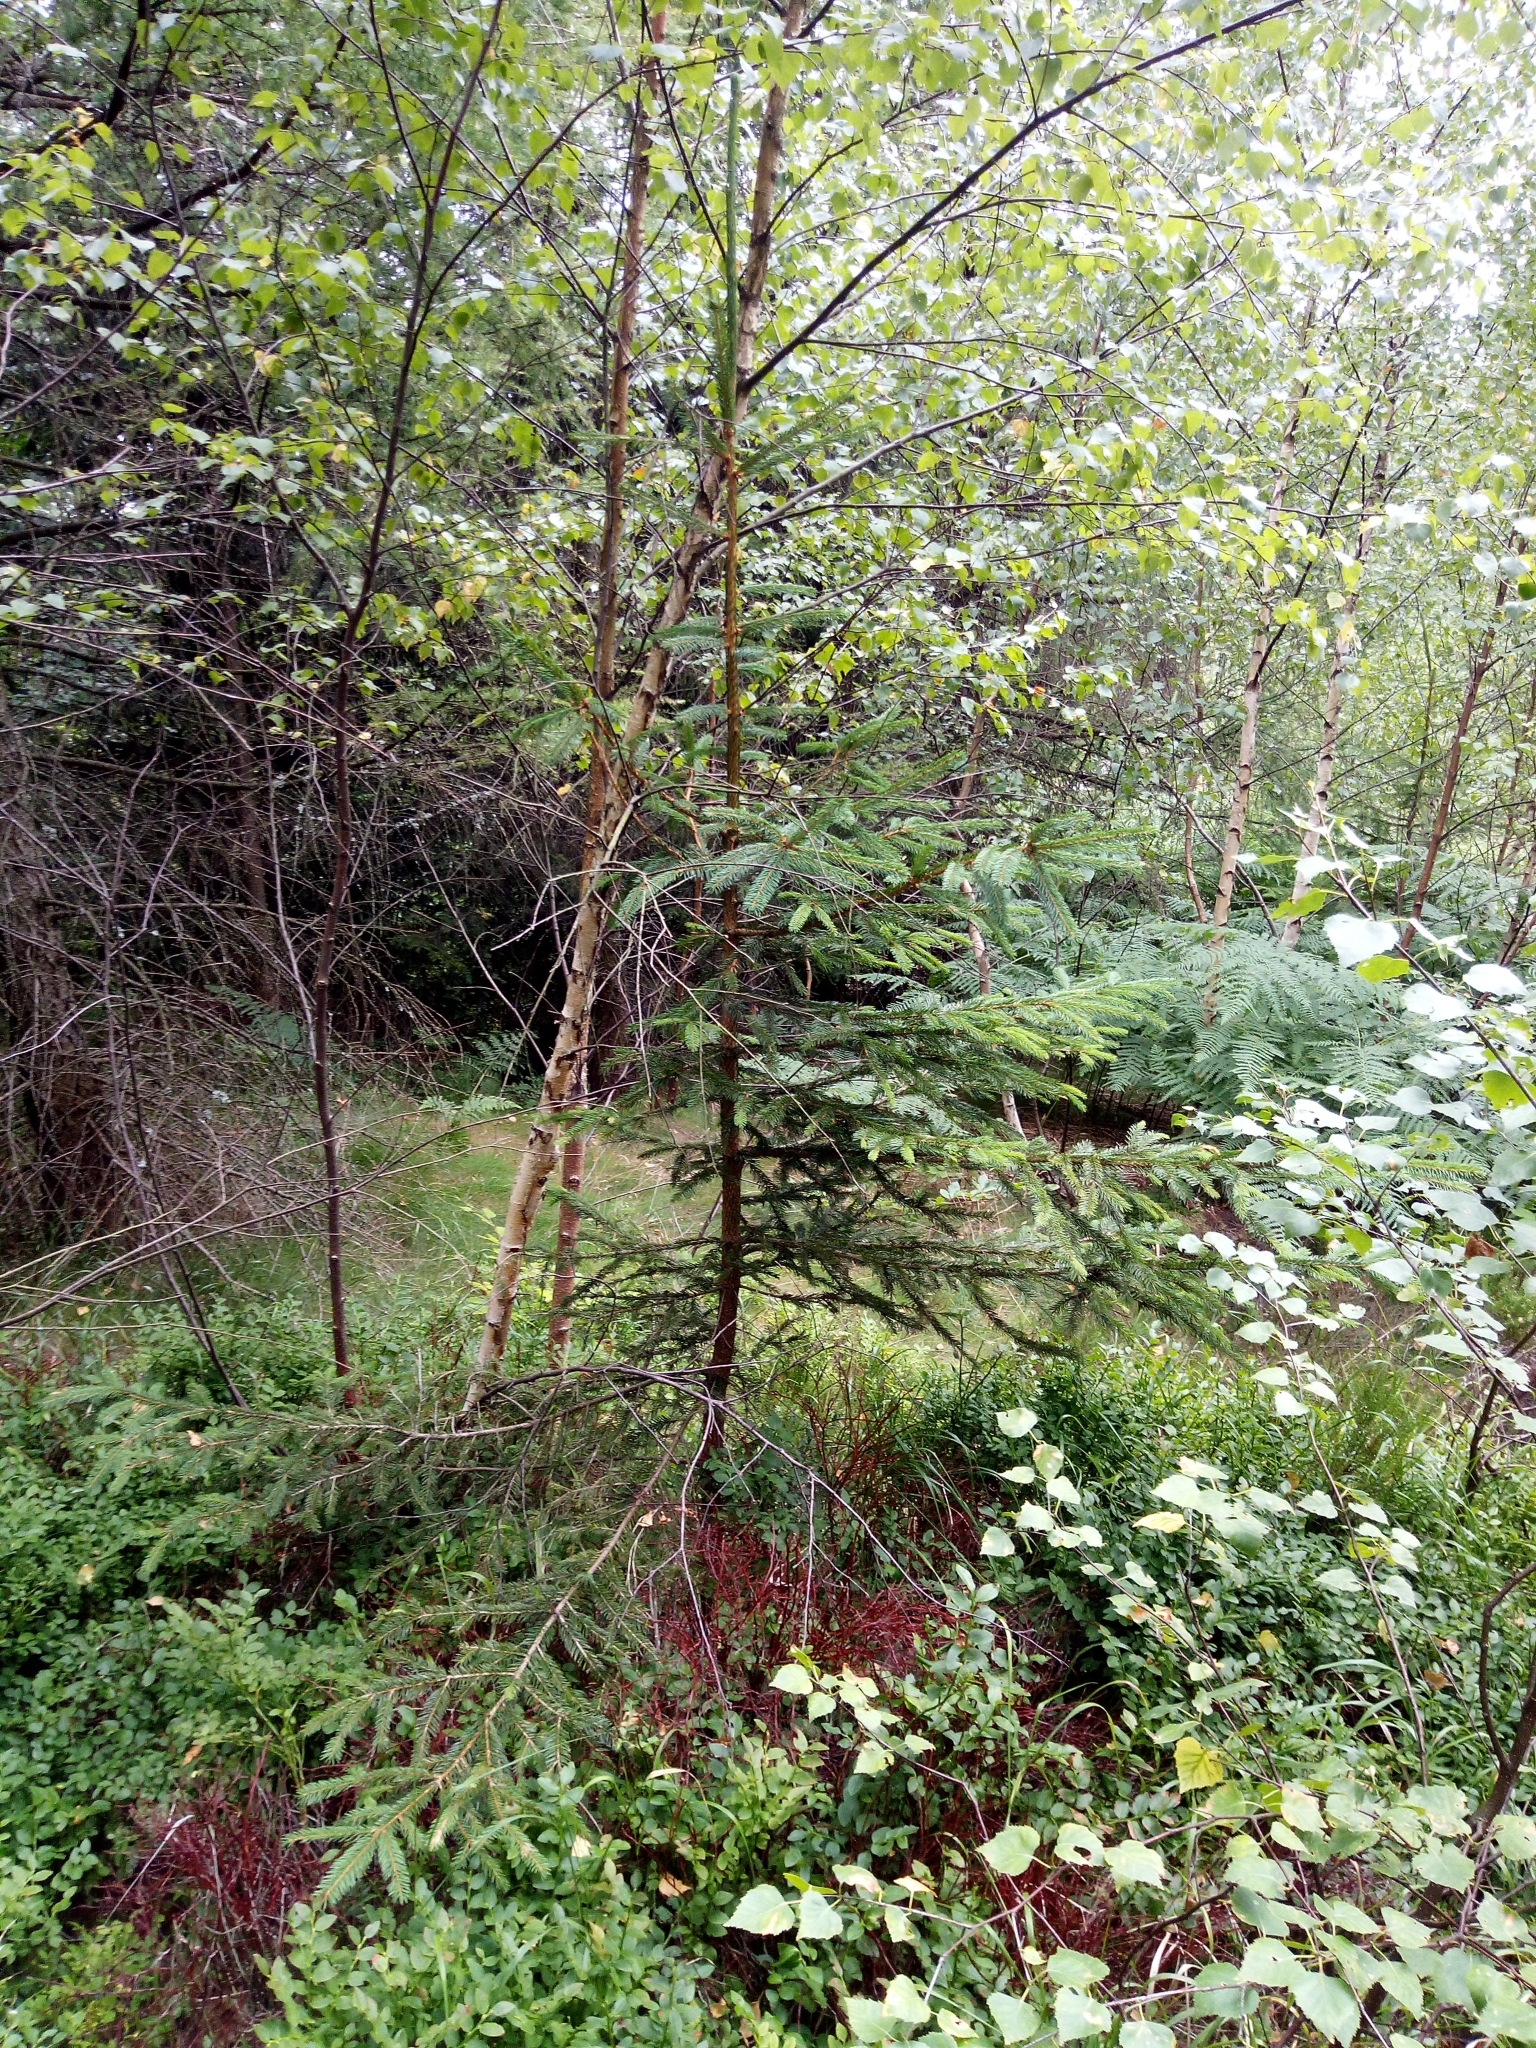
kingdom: Plantae
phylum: Tracheophyta
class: Pinopsida
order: Pinales
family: Pinaceae
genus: Picea
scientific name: Picea abies
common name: Norway spruce
